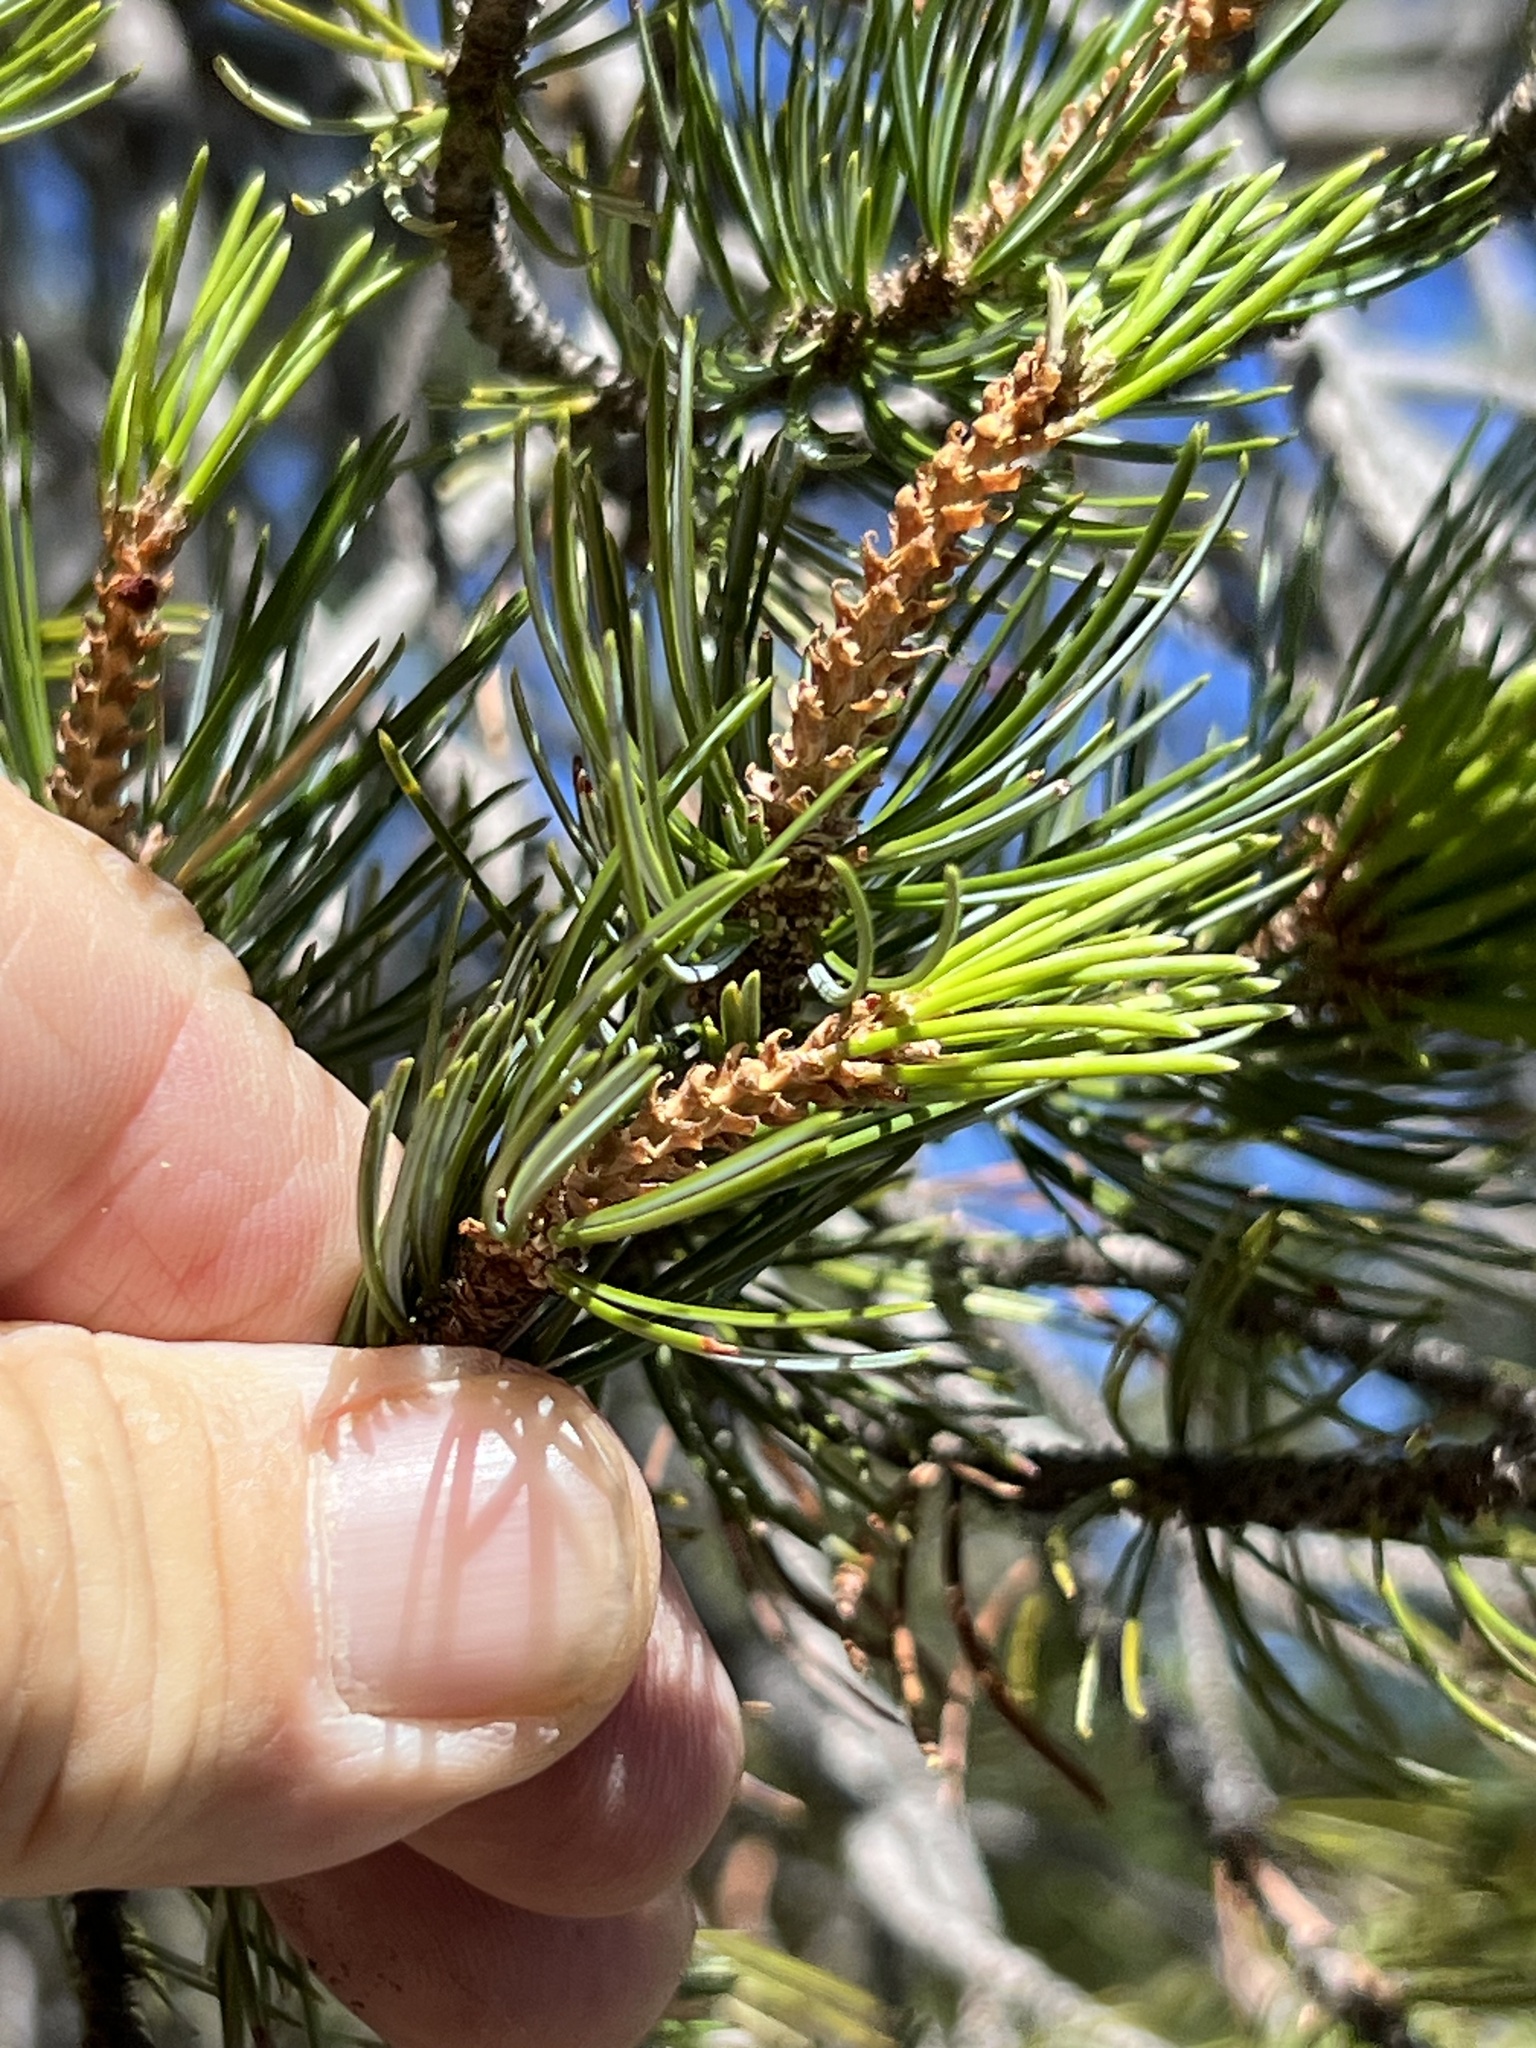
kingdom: Plantae
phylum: Tracheophyta
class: Pinopsida
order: Pinales
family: Pinaceae
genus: Pinus
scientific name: Pinus cembroides
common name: Mexican nut pine
